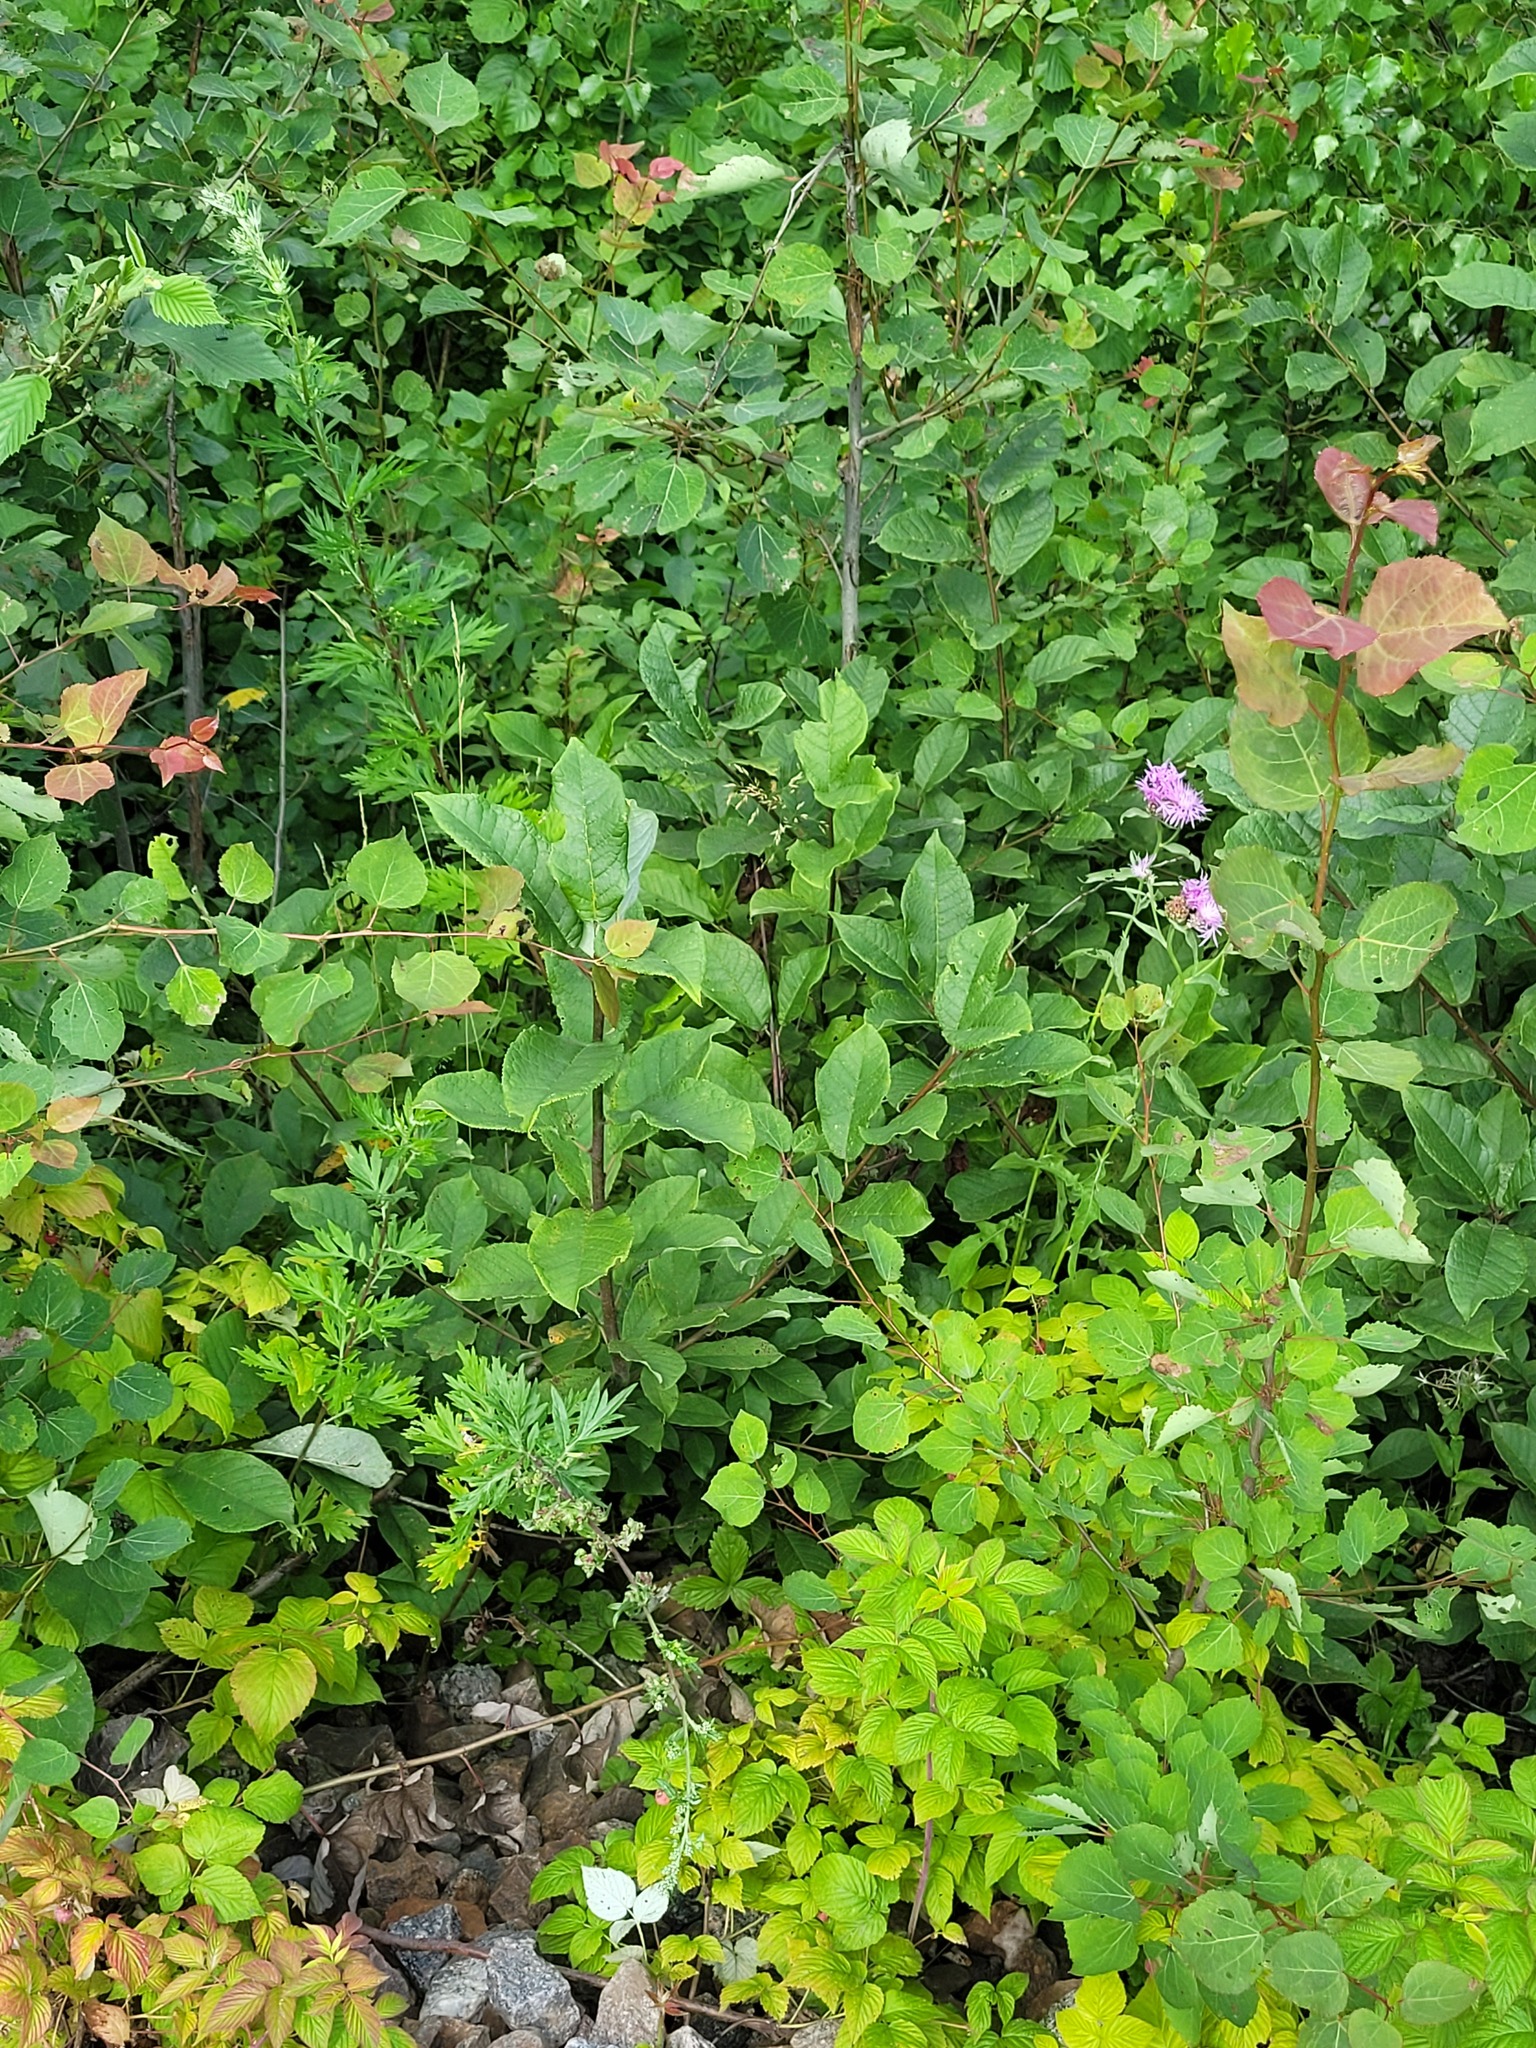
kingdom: Plantae
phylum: Tracheophyta
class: Magnoliopsida
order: Rosales
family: Rosaceae
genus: Prunus
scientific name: Prunus padus
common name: Bird cherry
